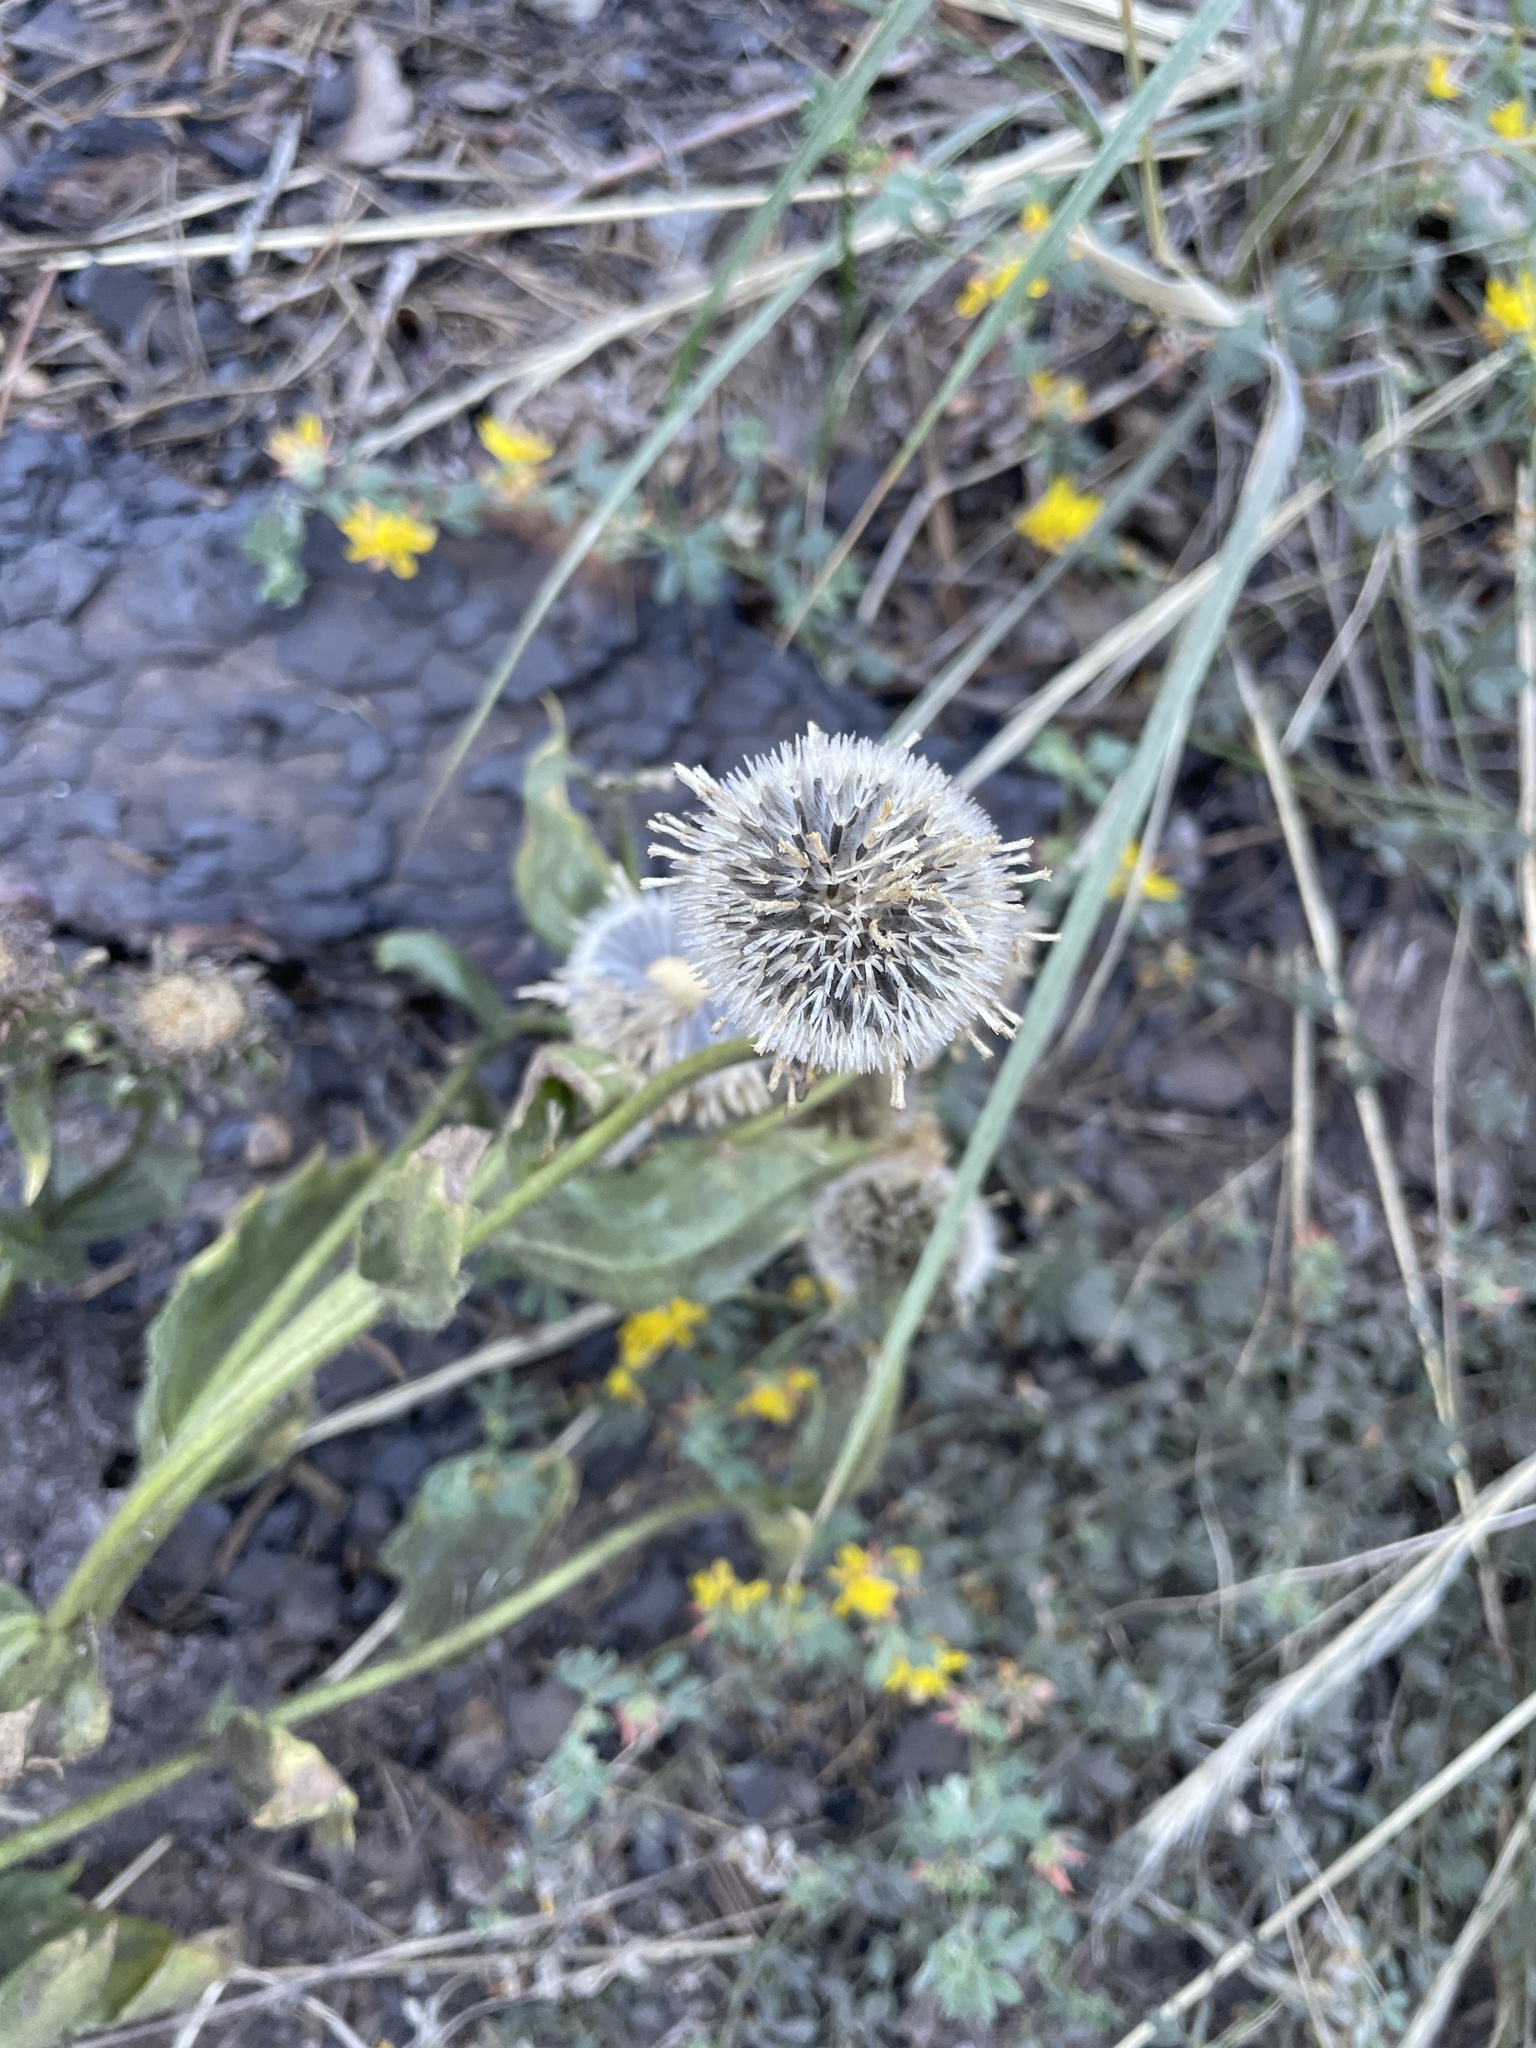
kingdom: Plantae
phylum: Tracheophyta
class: Magnoliopsida
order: Asterales
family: Asteraceae
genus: Hulsea
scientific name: Hulsea heterochroma
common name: Redray alpinegold
